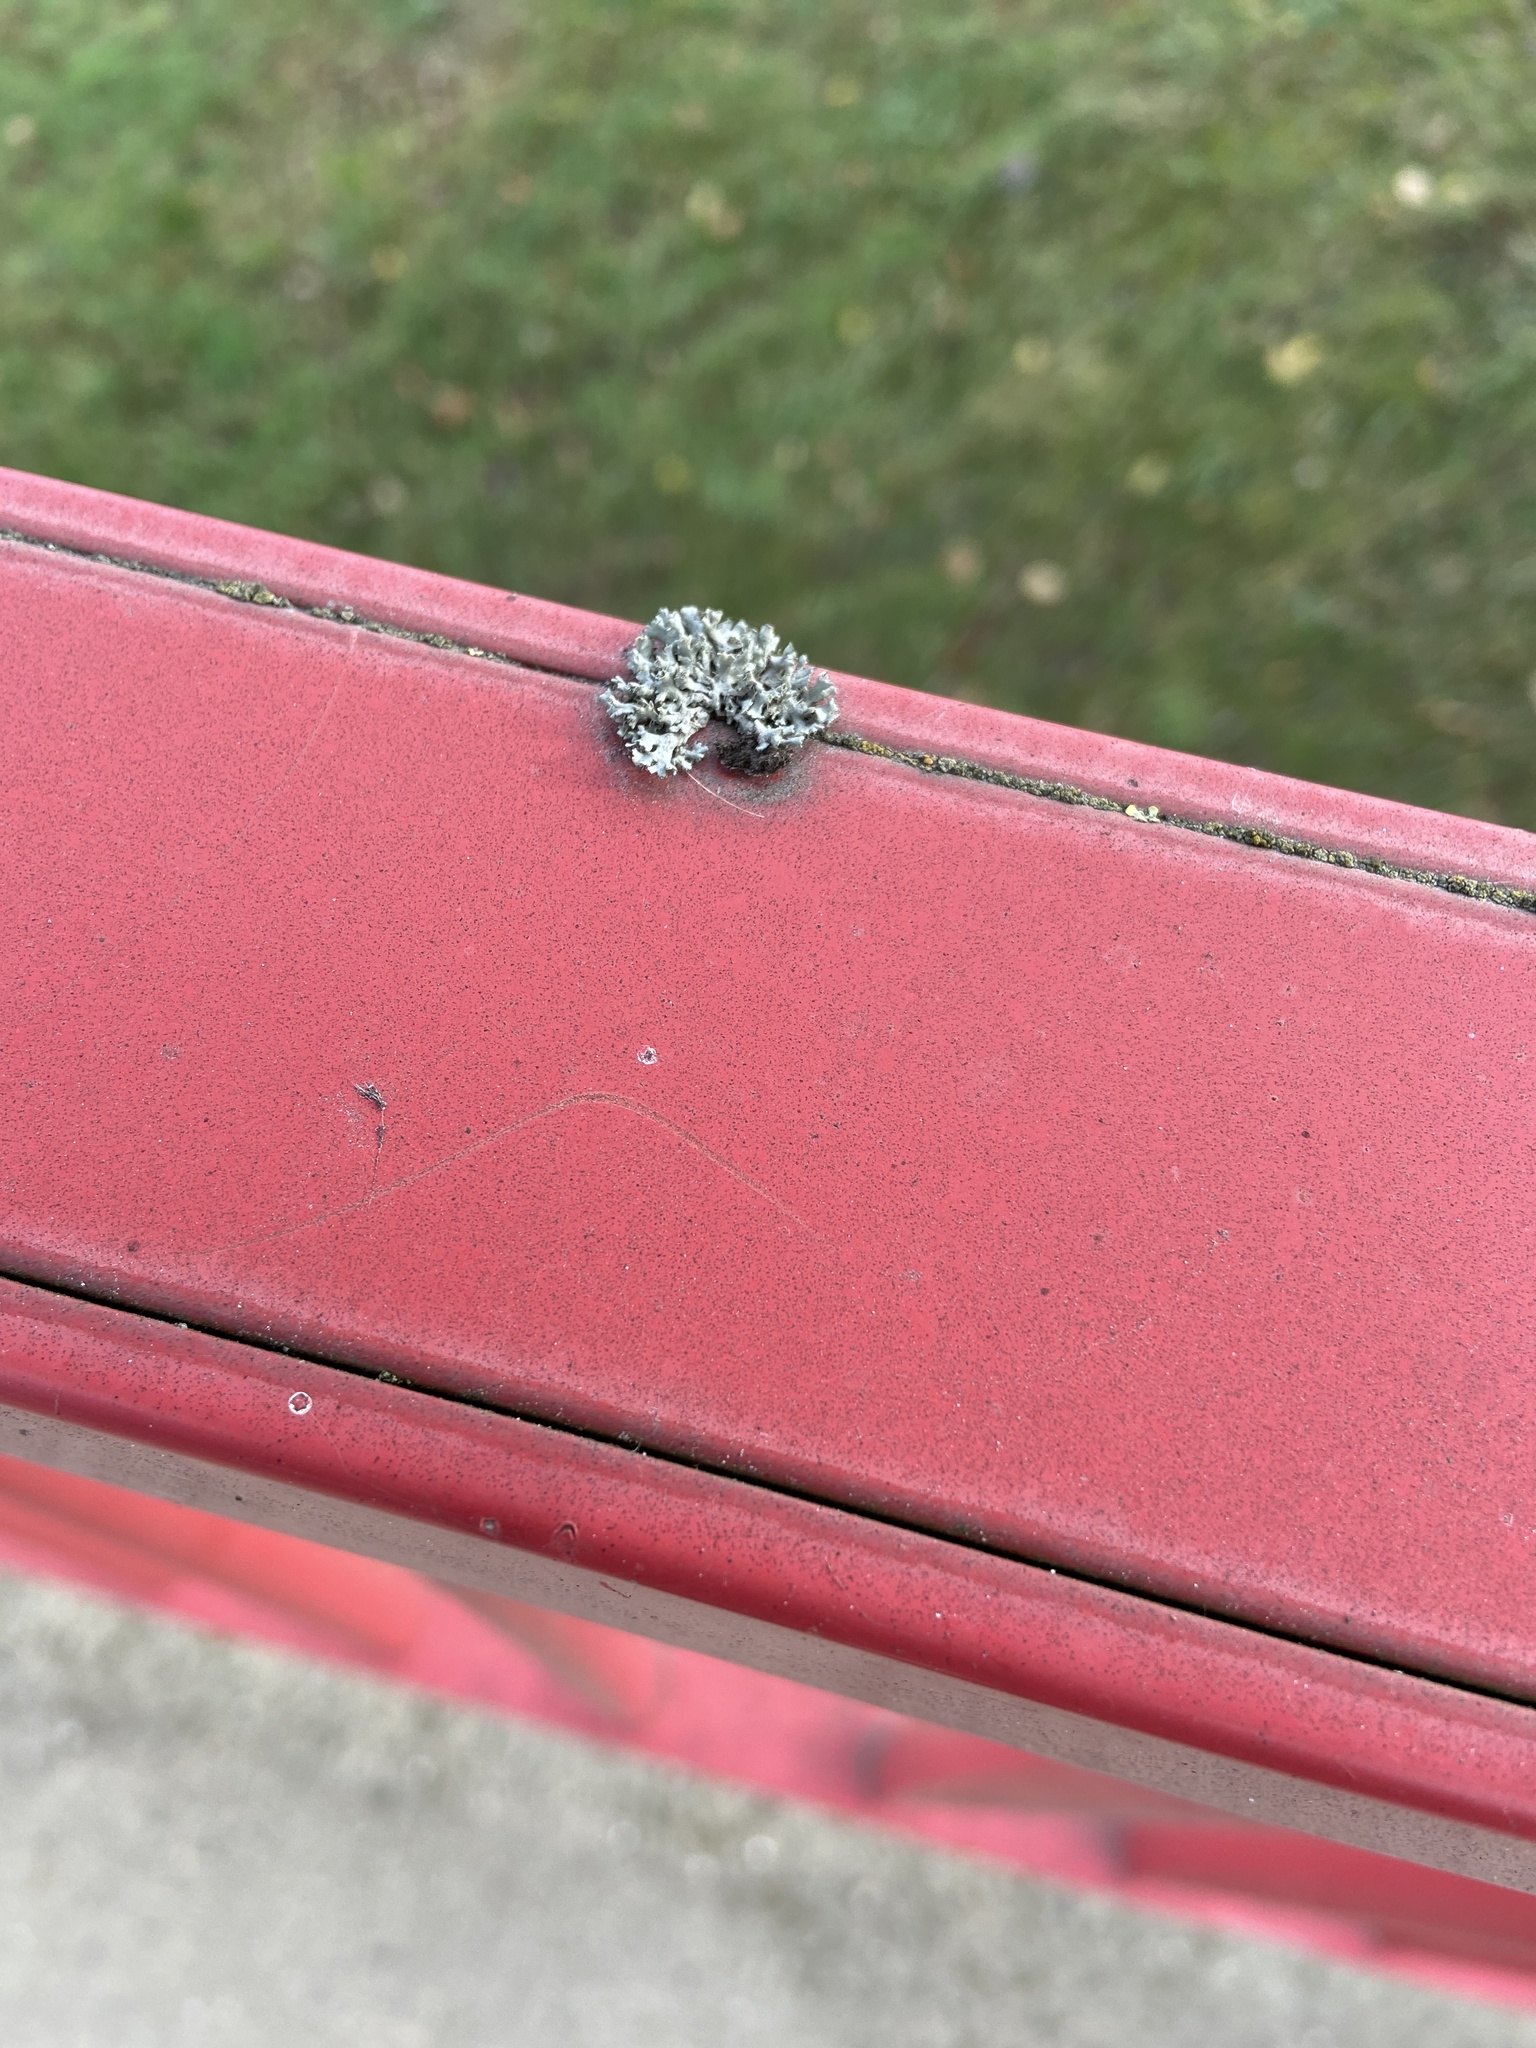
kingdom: Fungi
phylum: Ascomycota
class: Lecanoromycetes
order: Caliciales
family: Physciaceae
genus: Physcia
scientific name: Physcia adscendens
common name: Hooded rosette lichen
